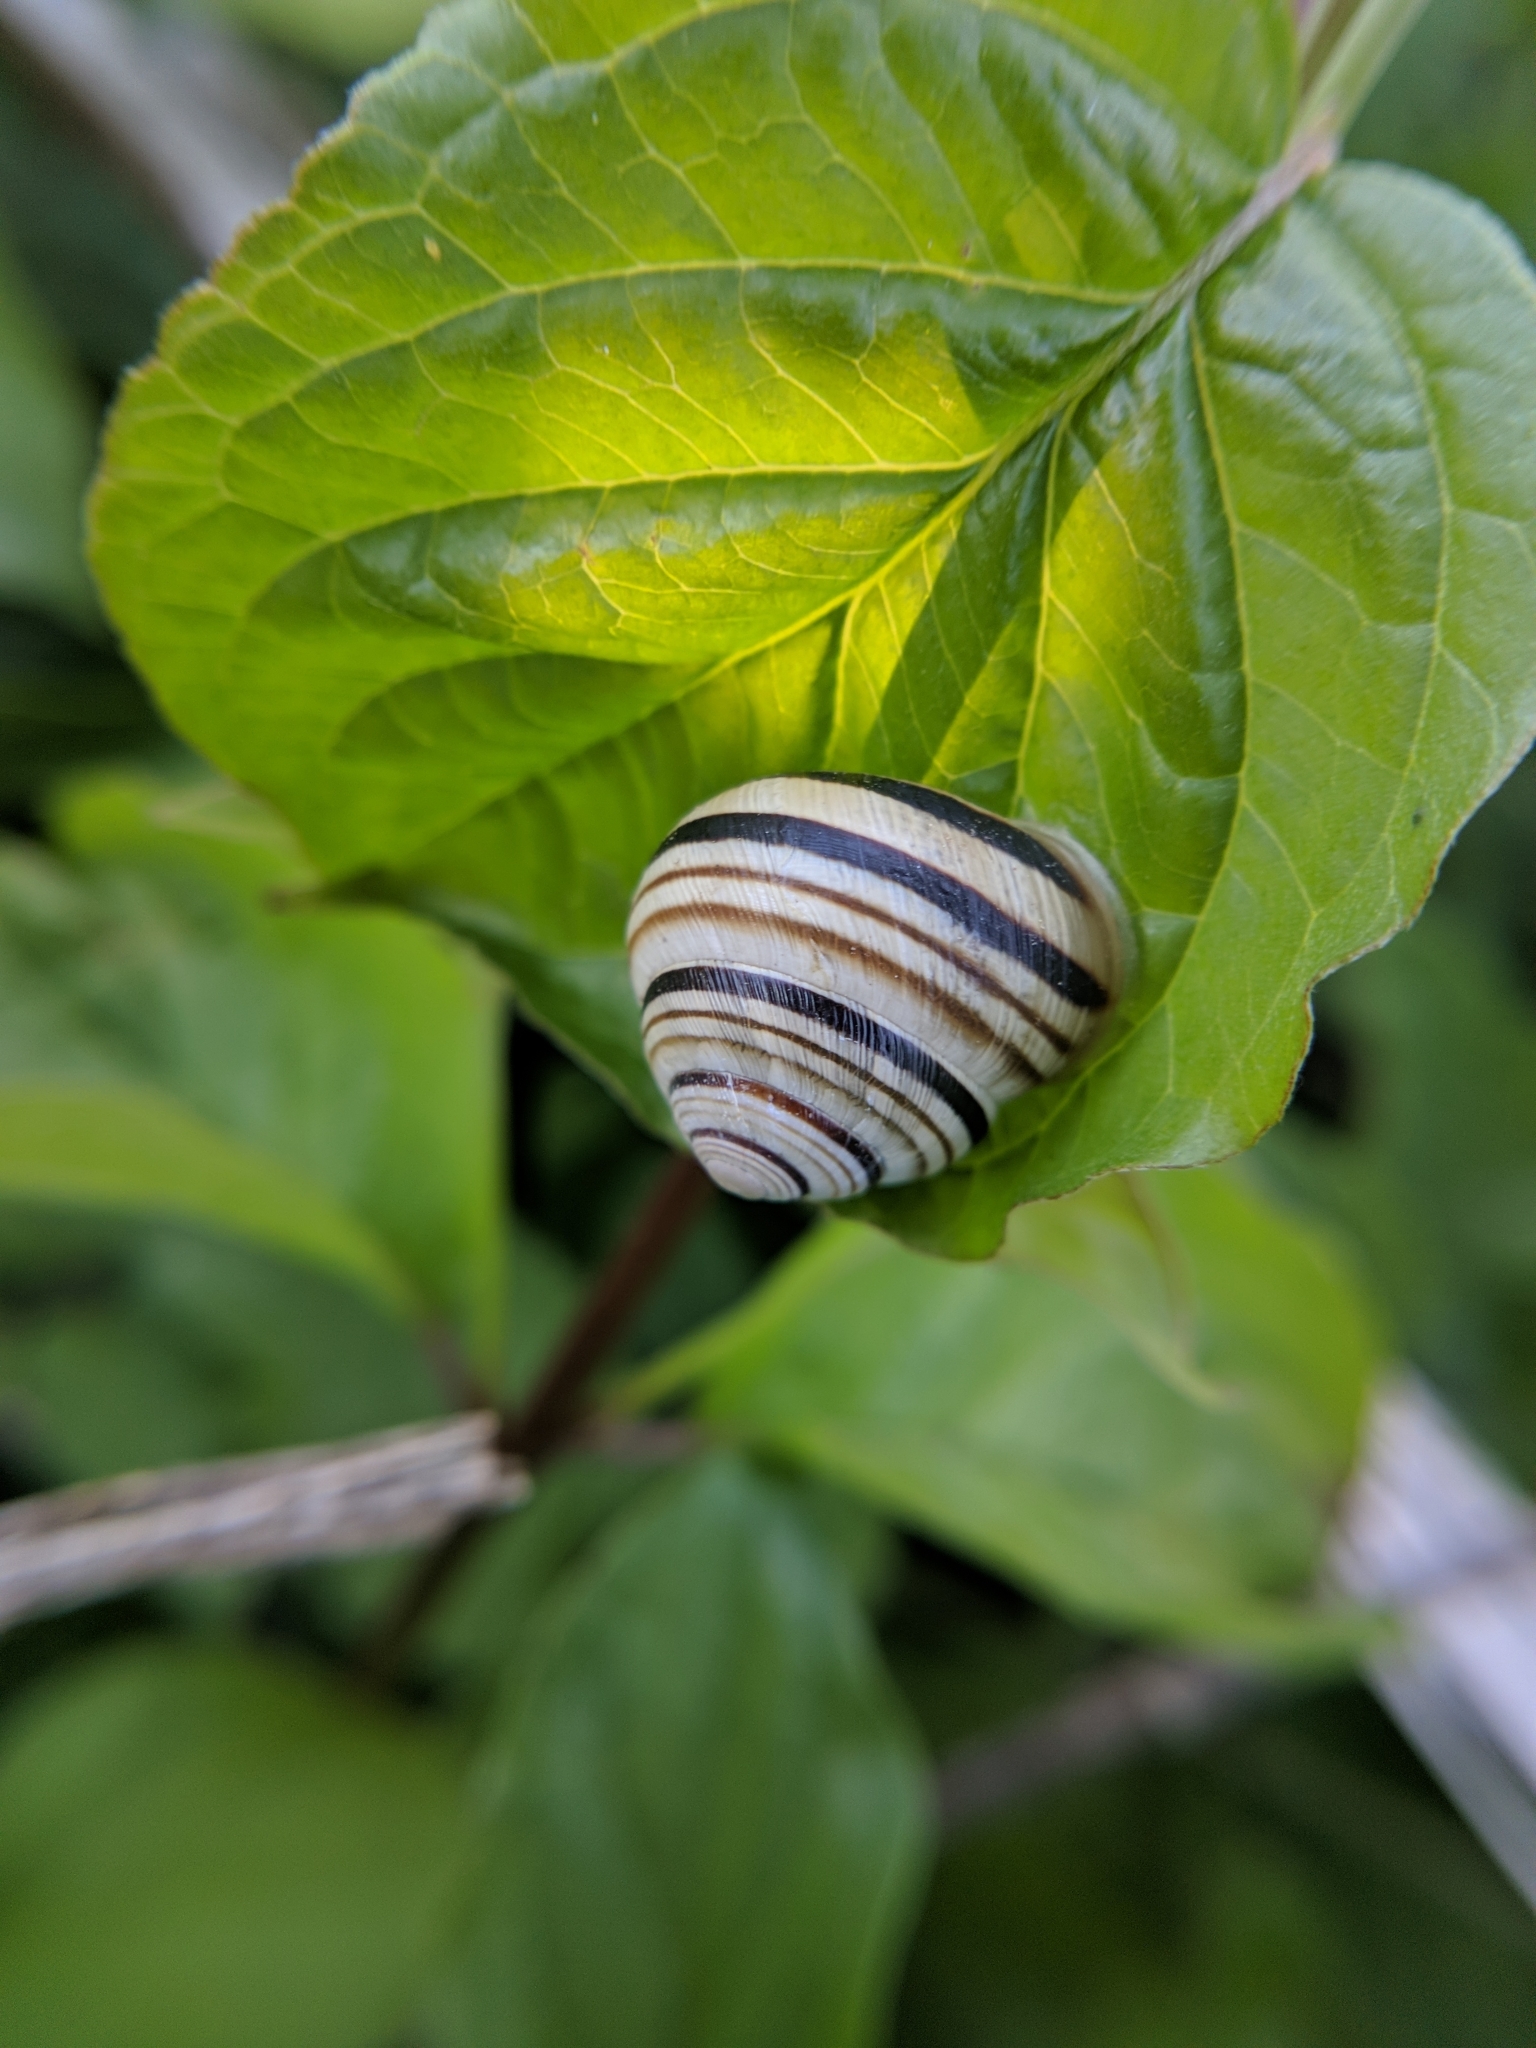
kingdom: Animalia
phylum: Mollusca
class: Gastropoda
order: Stylommatophora
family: Helicidae
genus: Caucasotachea
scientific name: Caucasotachea vindobonensis
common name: European helicid land snail
